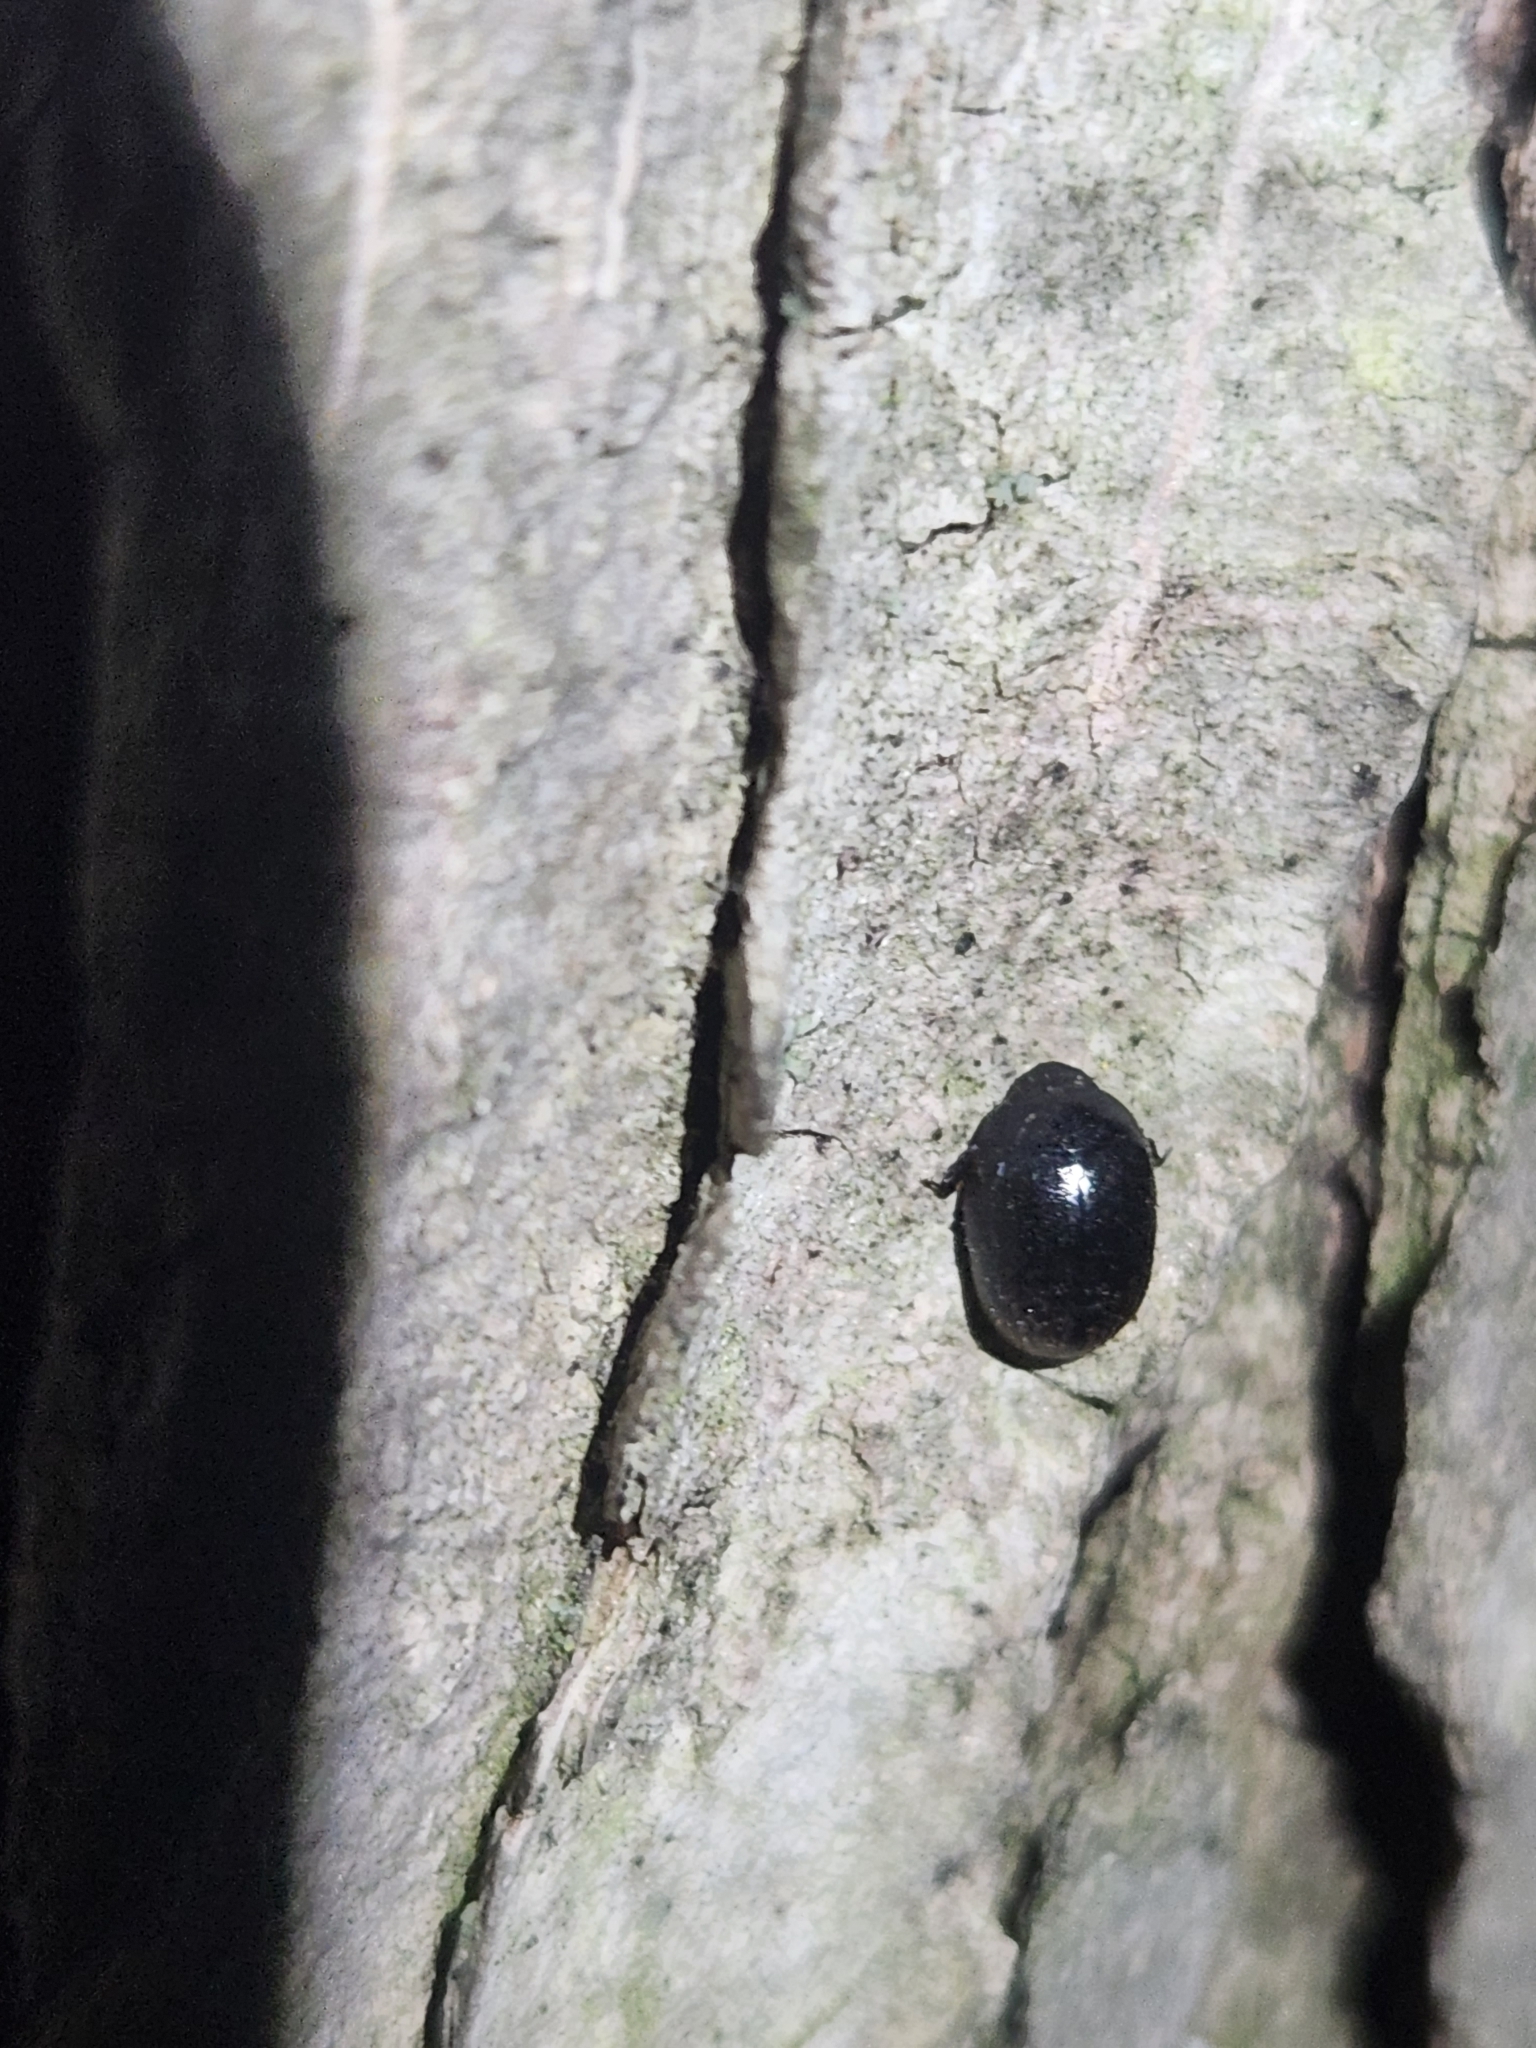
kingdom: Animalia
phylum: Arthropoda
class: Insecta
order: Coleoptera
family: Nosodendridae
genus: Nosodendron
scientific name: Nosodendron unicolor
